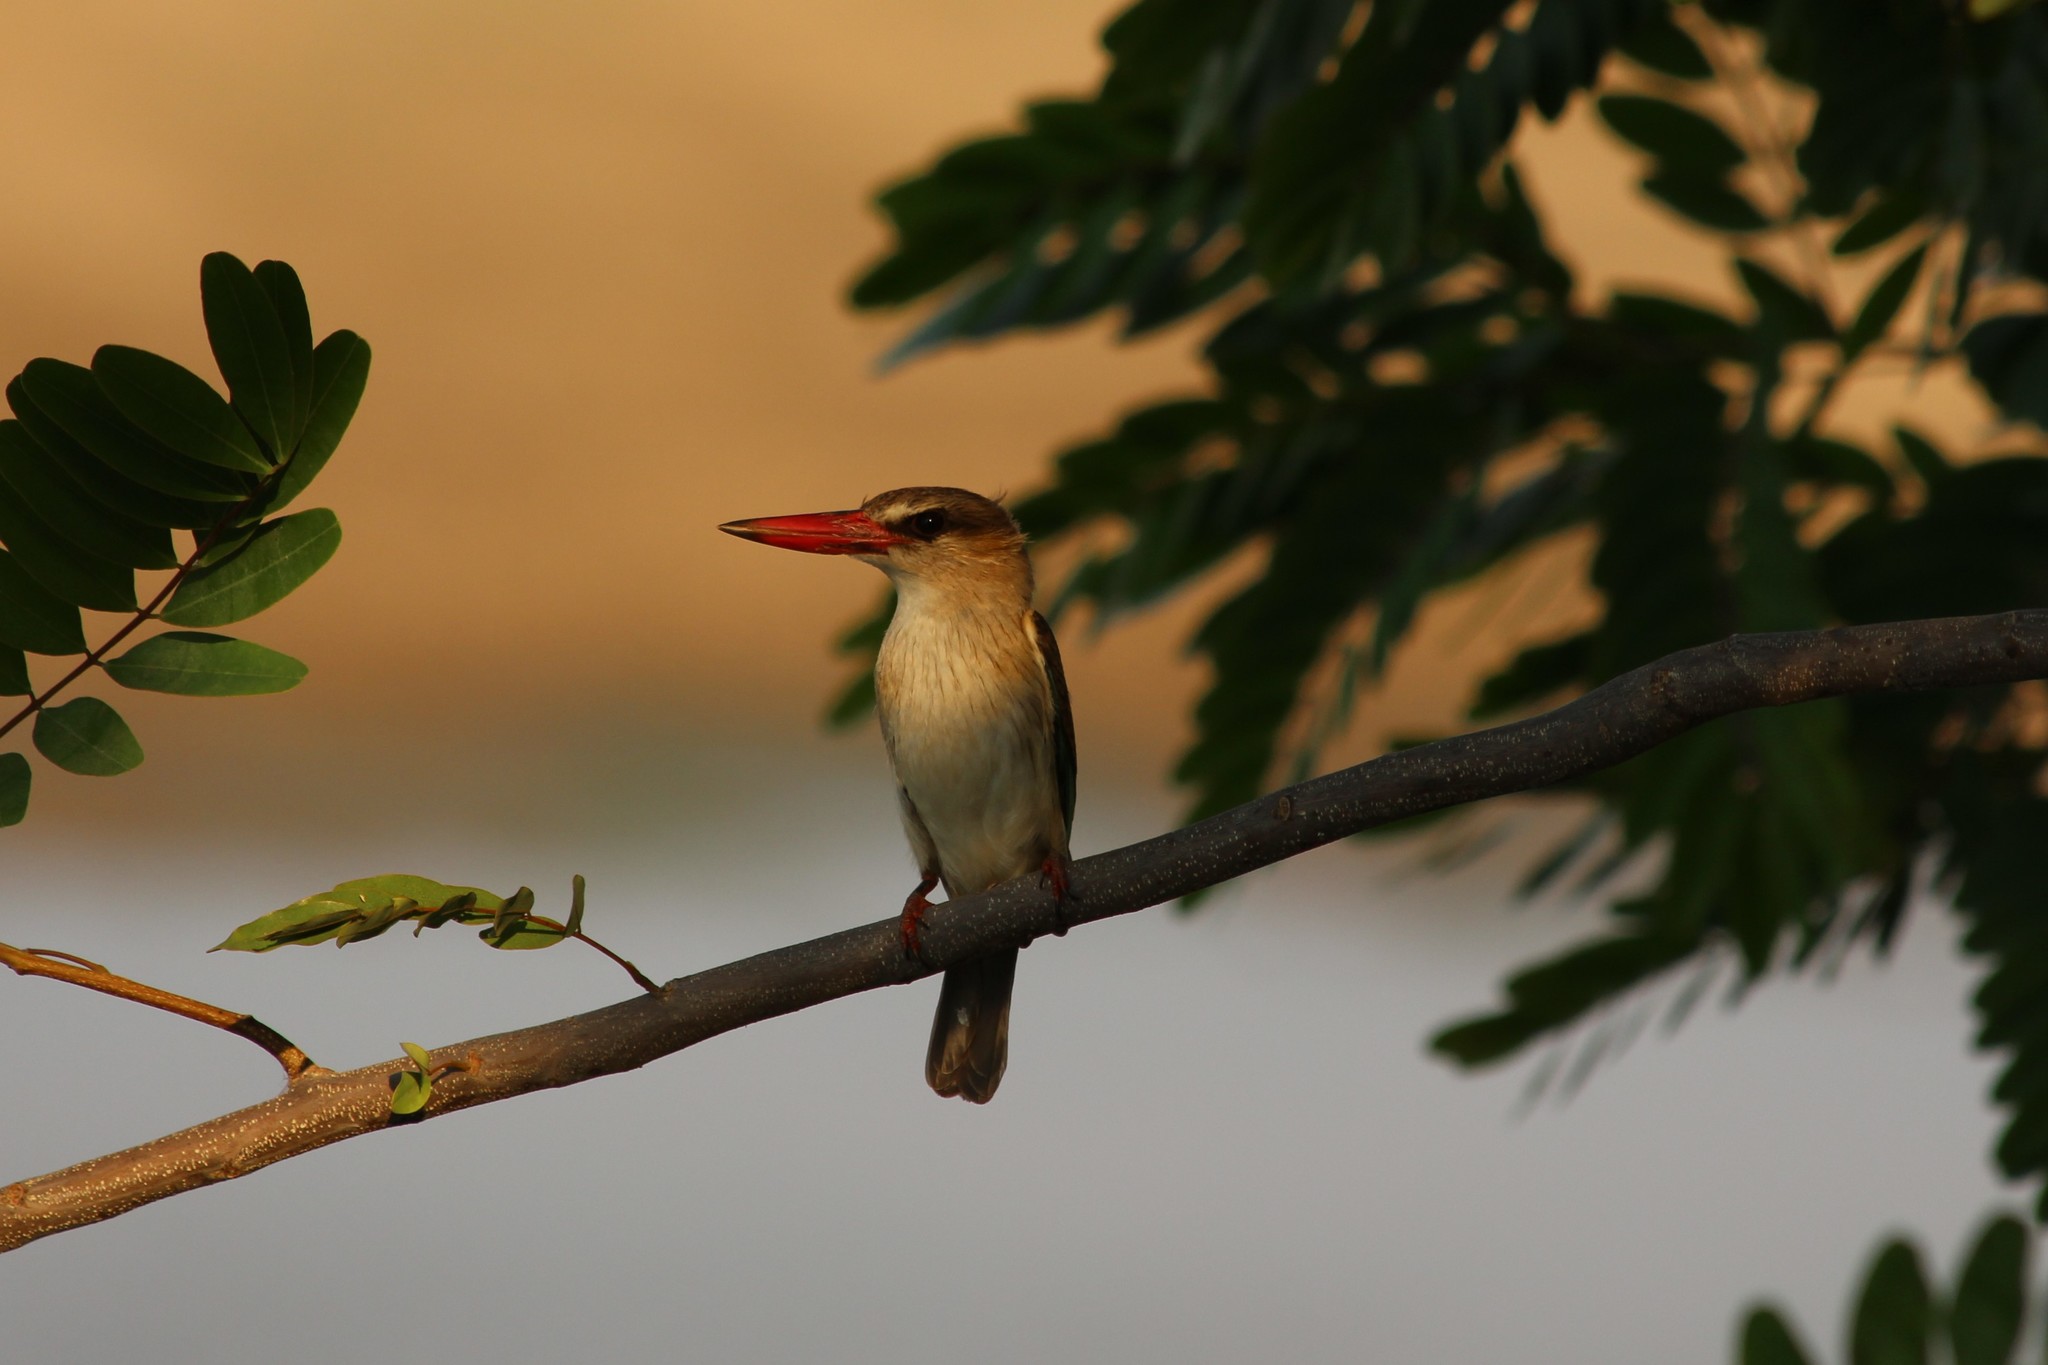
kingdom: Animalia
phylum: Chordata
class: Aves
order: Coraciiformes
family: Alcedinidae
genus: Halcyon
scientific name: Halcyon albiventris
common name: Brown-hooded kingfisher
